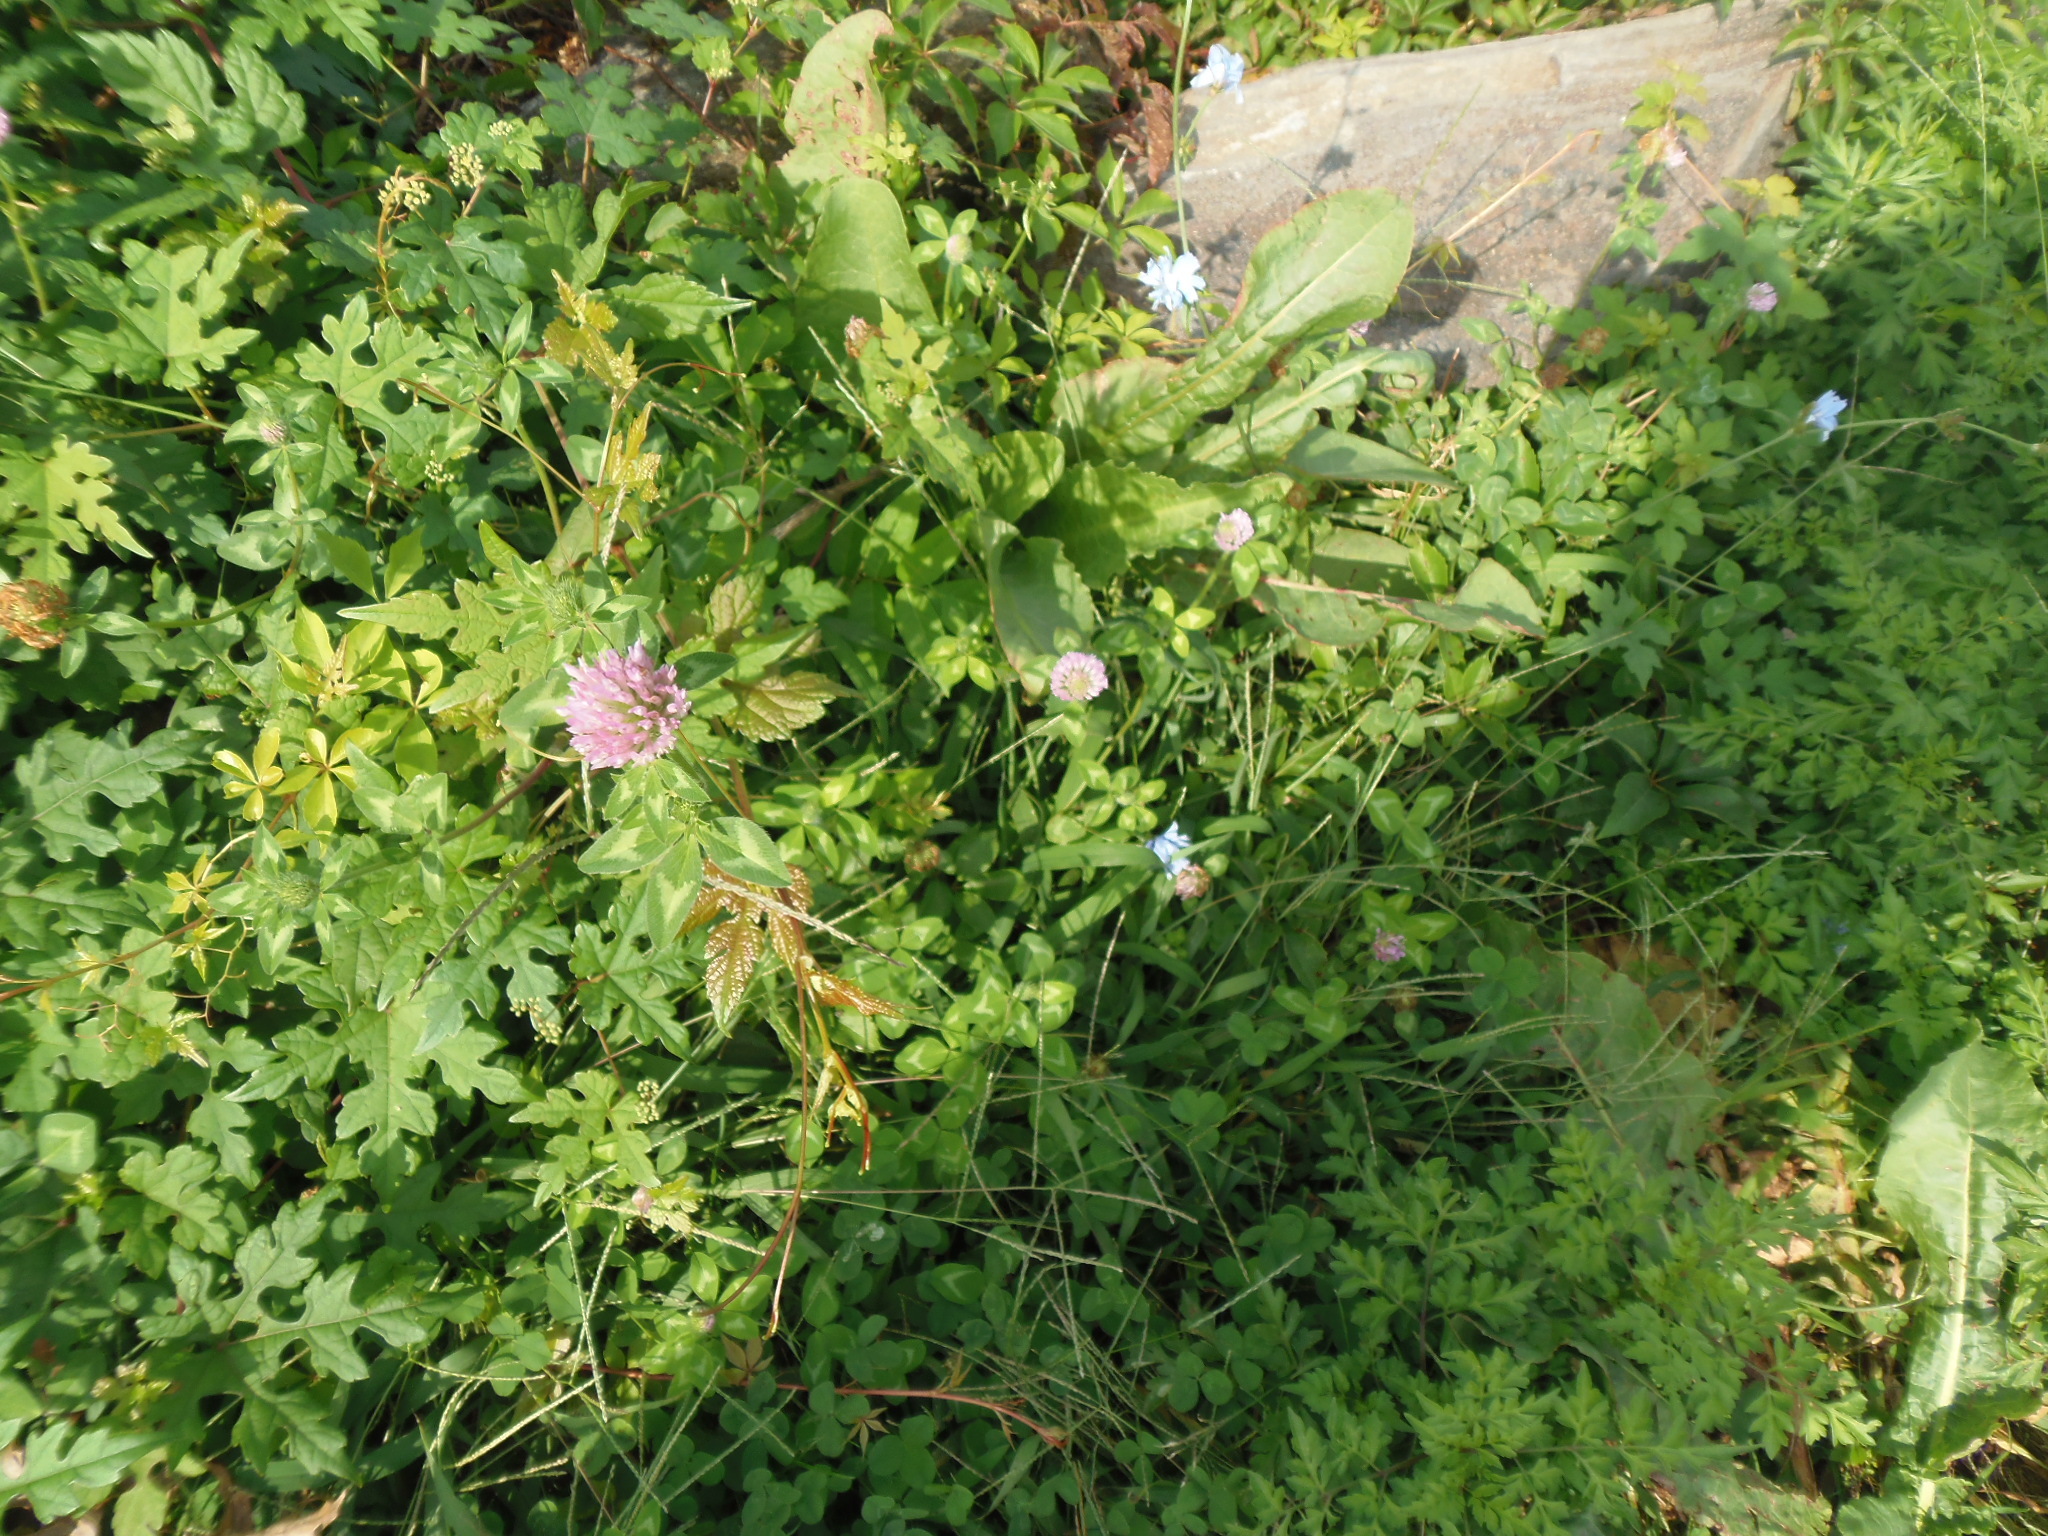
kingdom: Plantae
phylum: Tracheophyta
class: Magnoliopsida
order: Fabales
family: Fabaceae
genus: Trifolium
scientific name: Trifolium pratense
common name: Red clover
